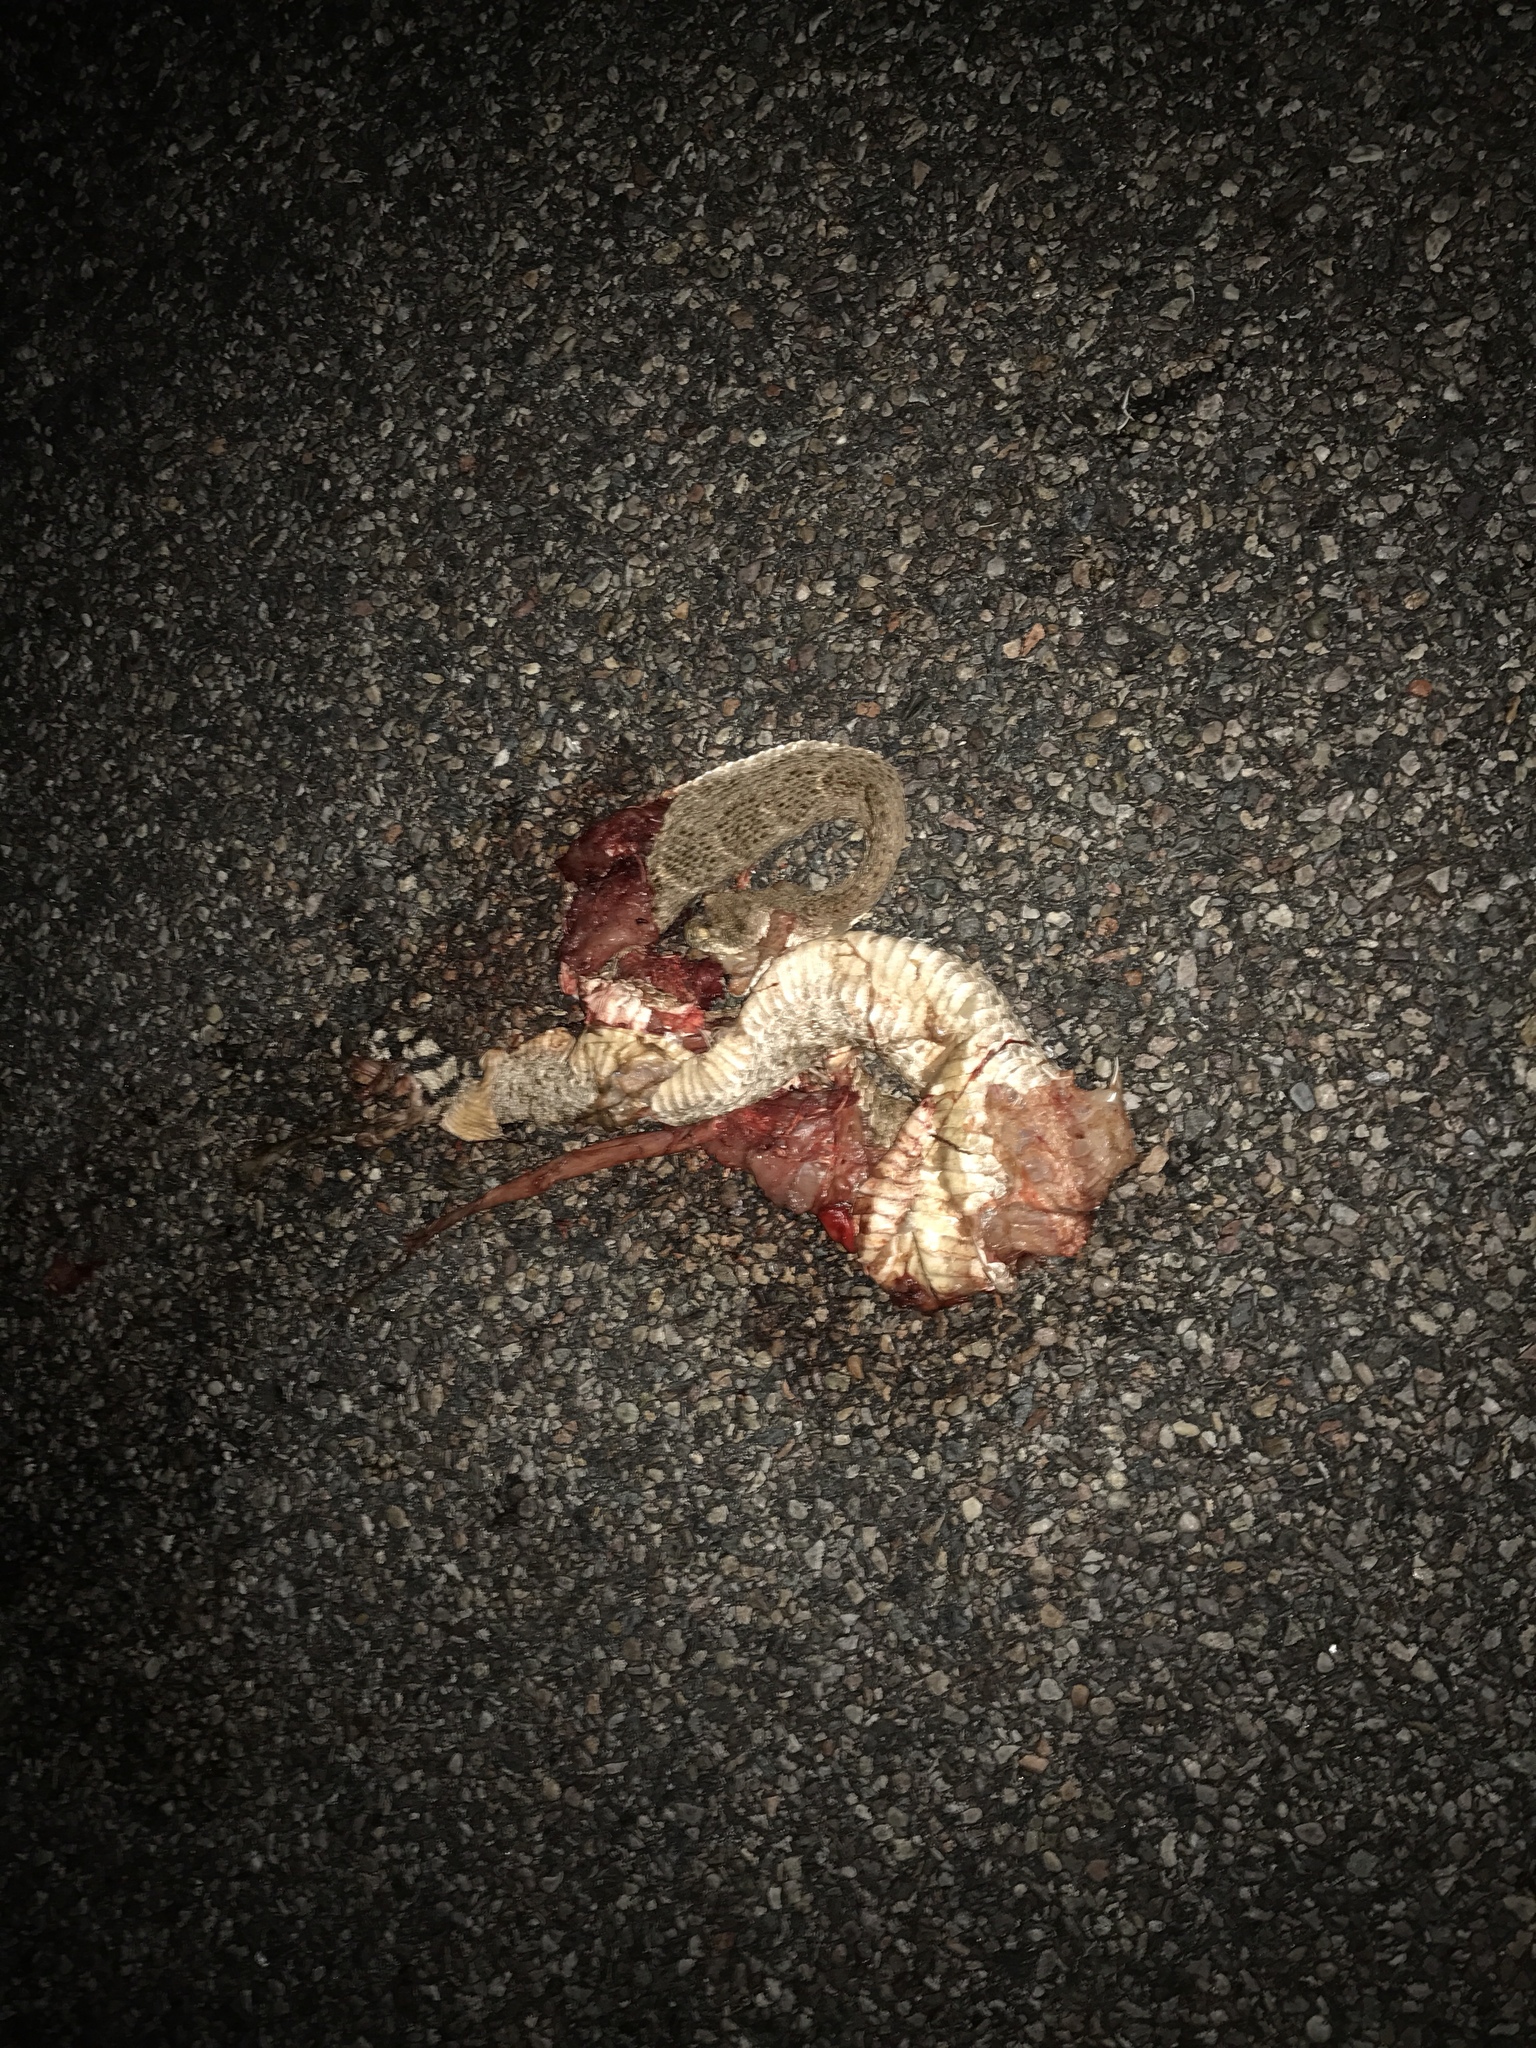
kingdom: Animalia
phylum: Chordata
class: Squamata
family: Viperidae
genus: Crotalus
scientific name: Crotalus atrox
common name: Western diamond-backed rattlesnake
